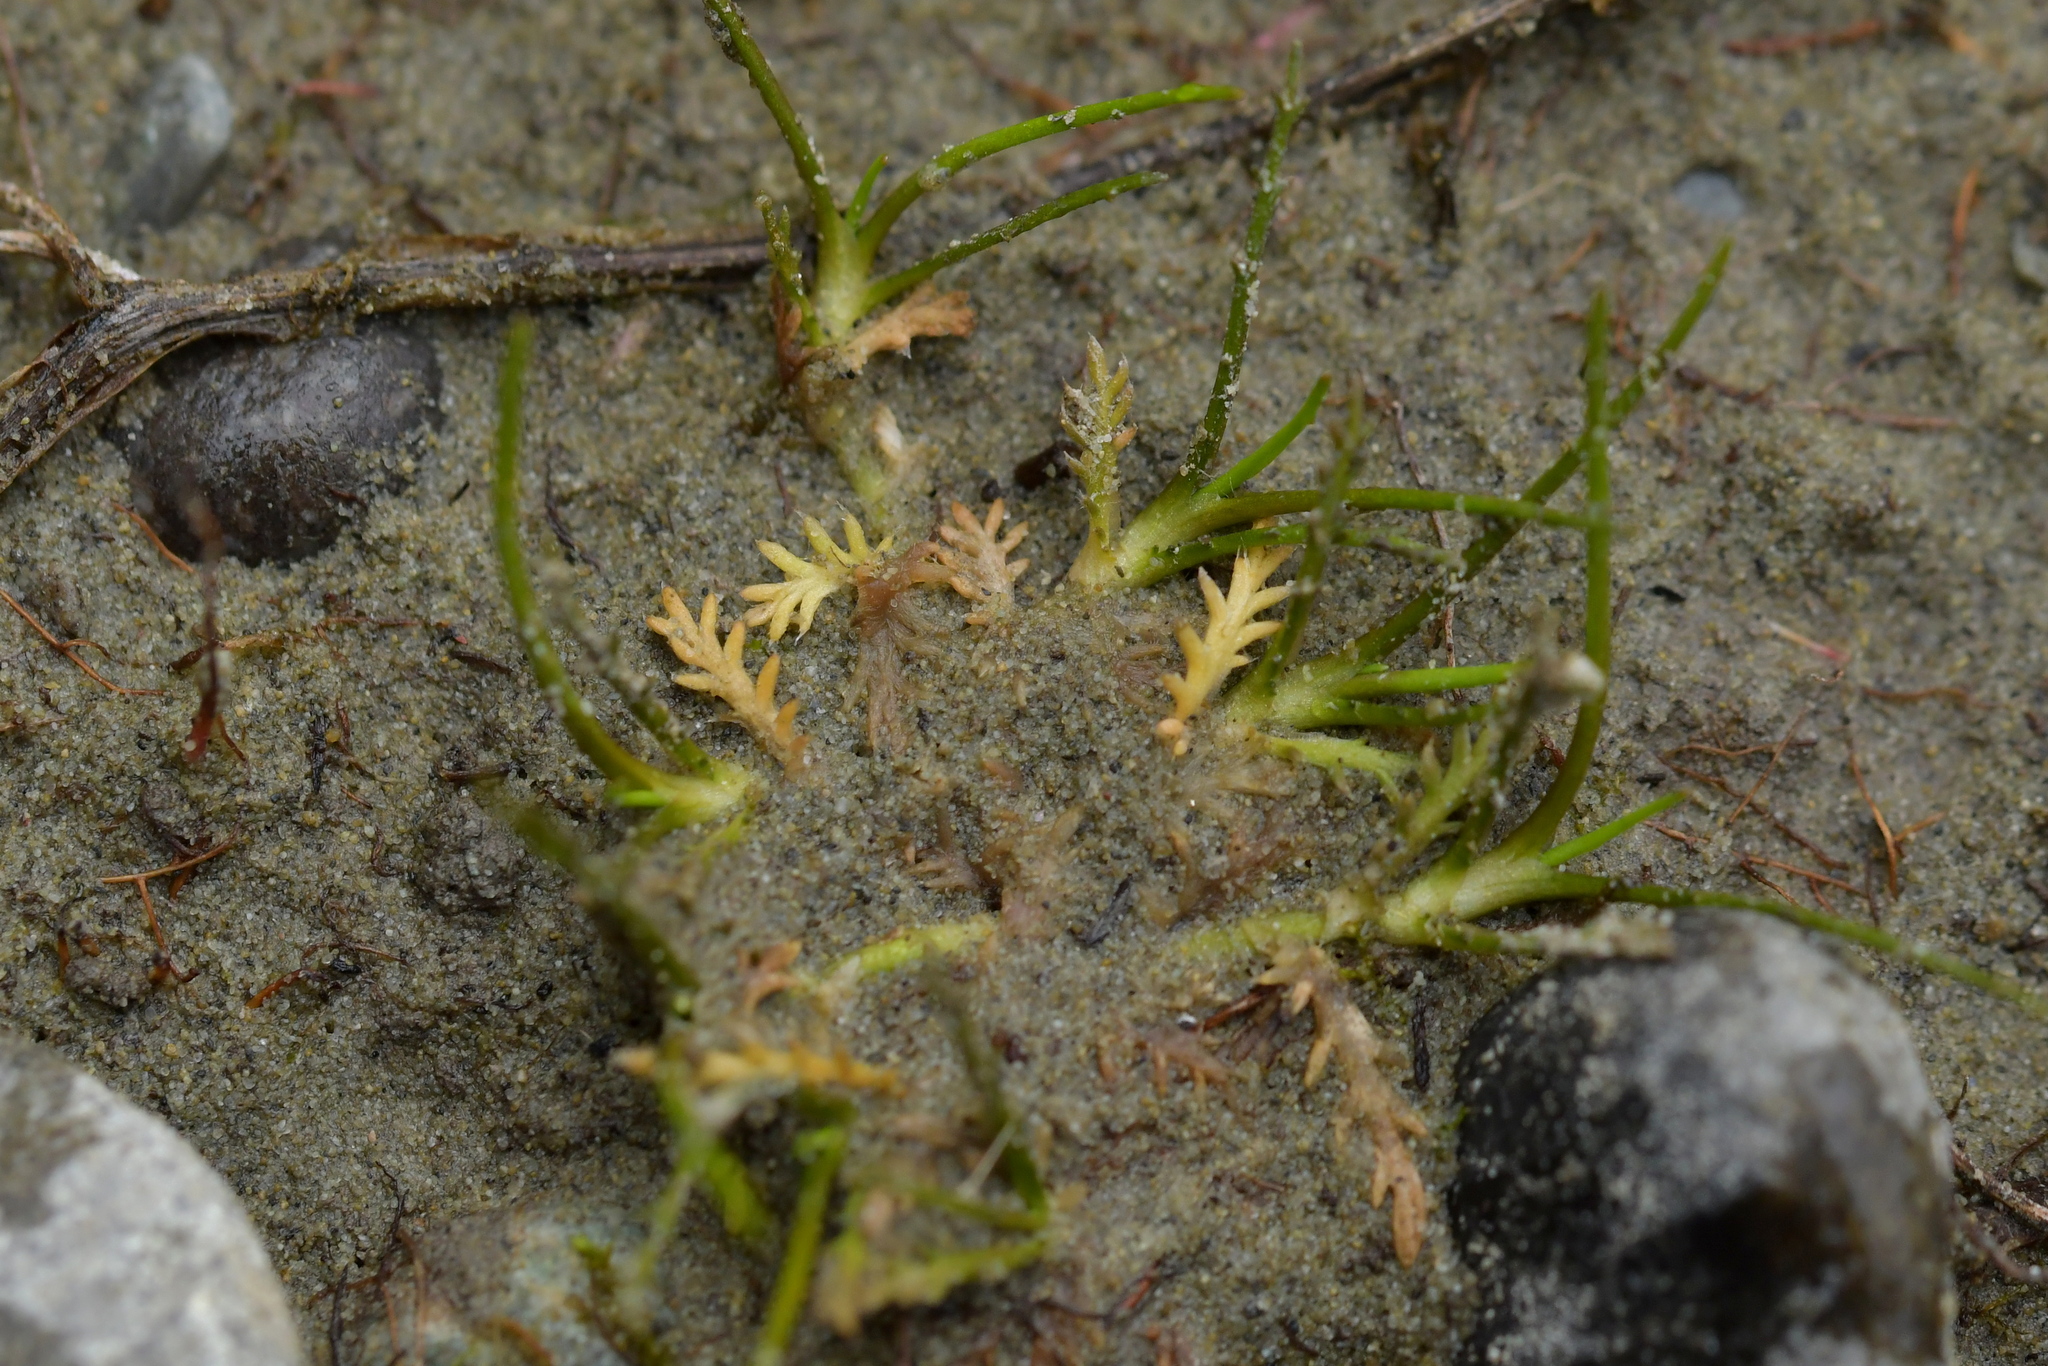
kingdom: Plantae
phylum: Tracheophyta
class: Magnoliopsida
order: Asterales
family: Asteraceae
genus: Leptinella
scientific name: Leptinella maniototo
